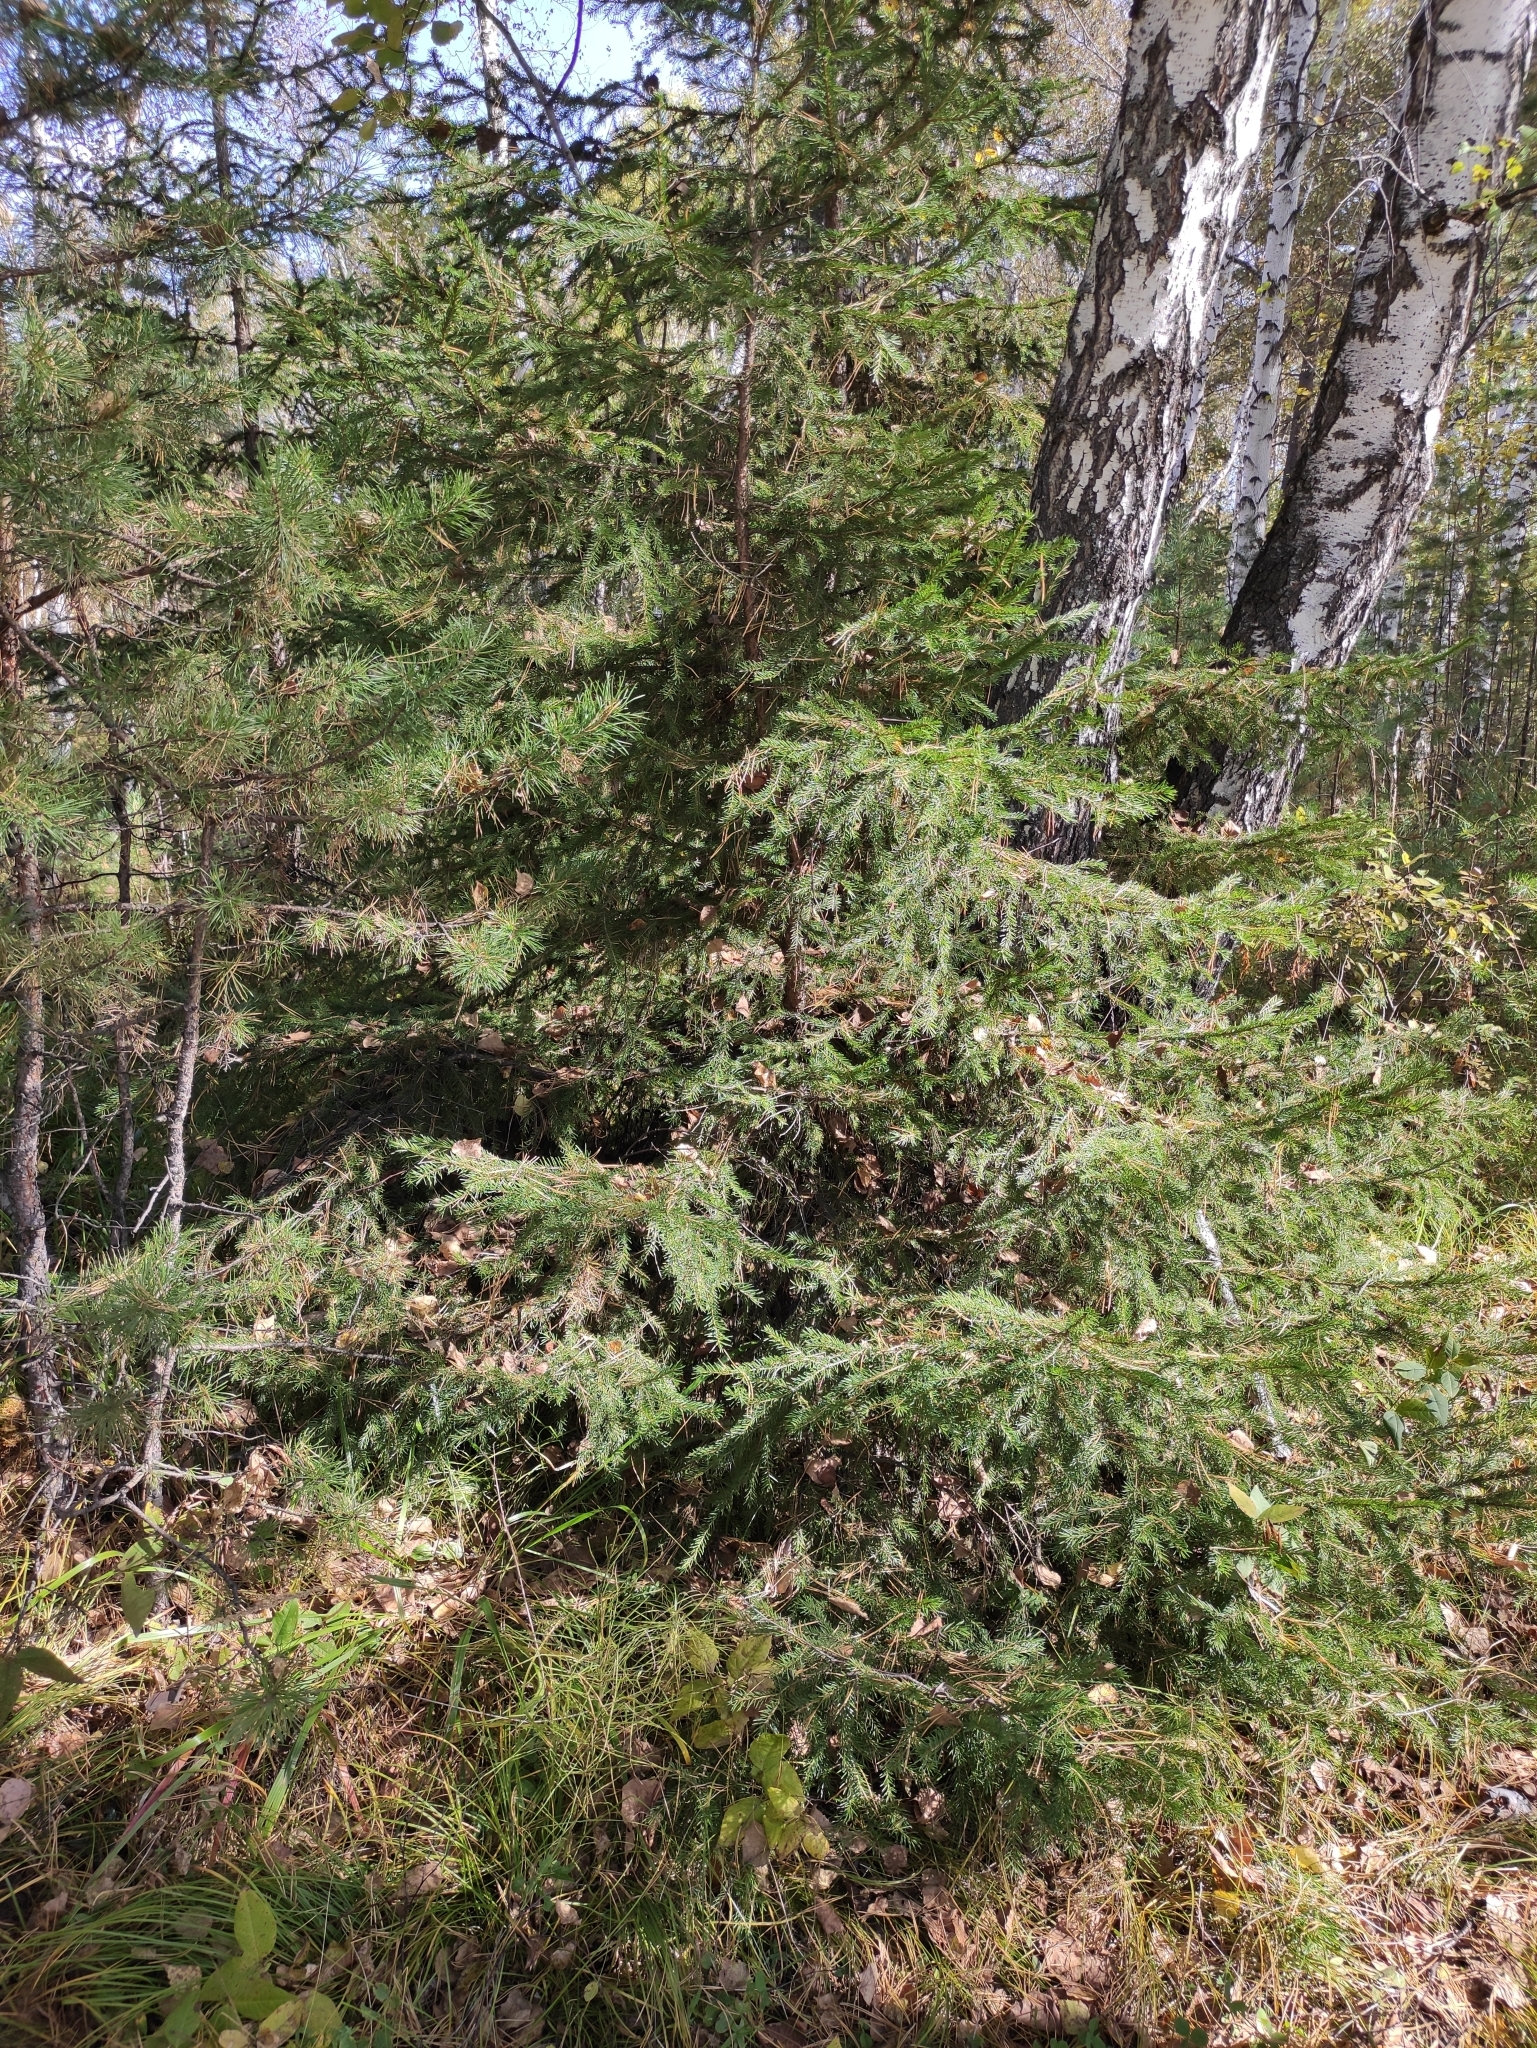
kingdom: Plantae
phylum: Tracheophyta
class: Pinopsida
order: Pinales
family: Pinaceae
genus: Picea
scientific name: Picea obovata
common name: Siberian spruce
